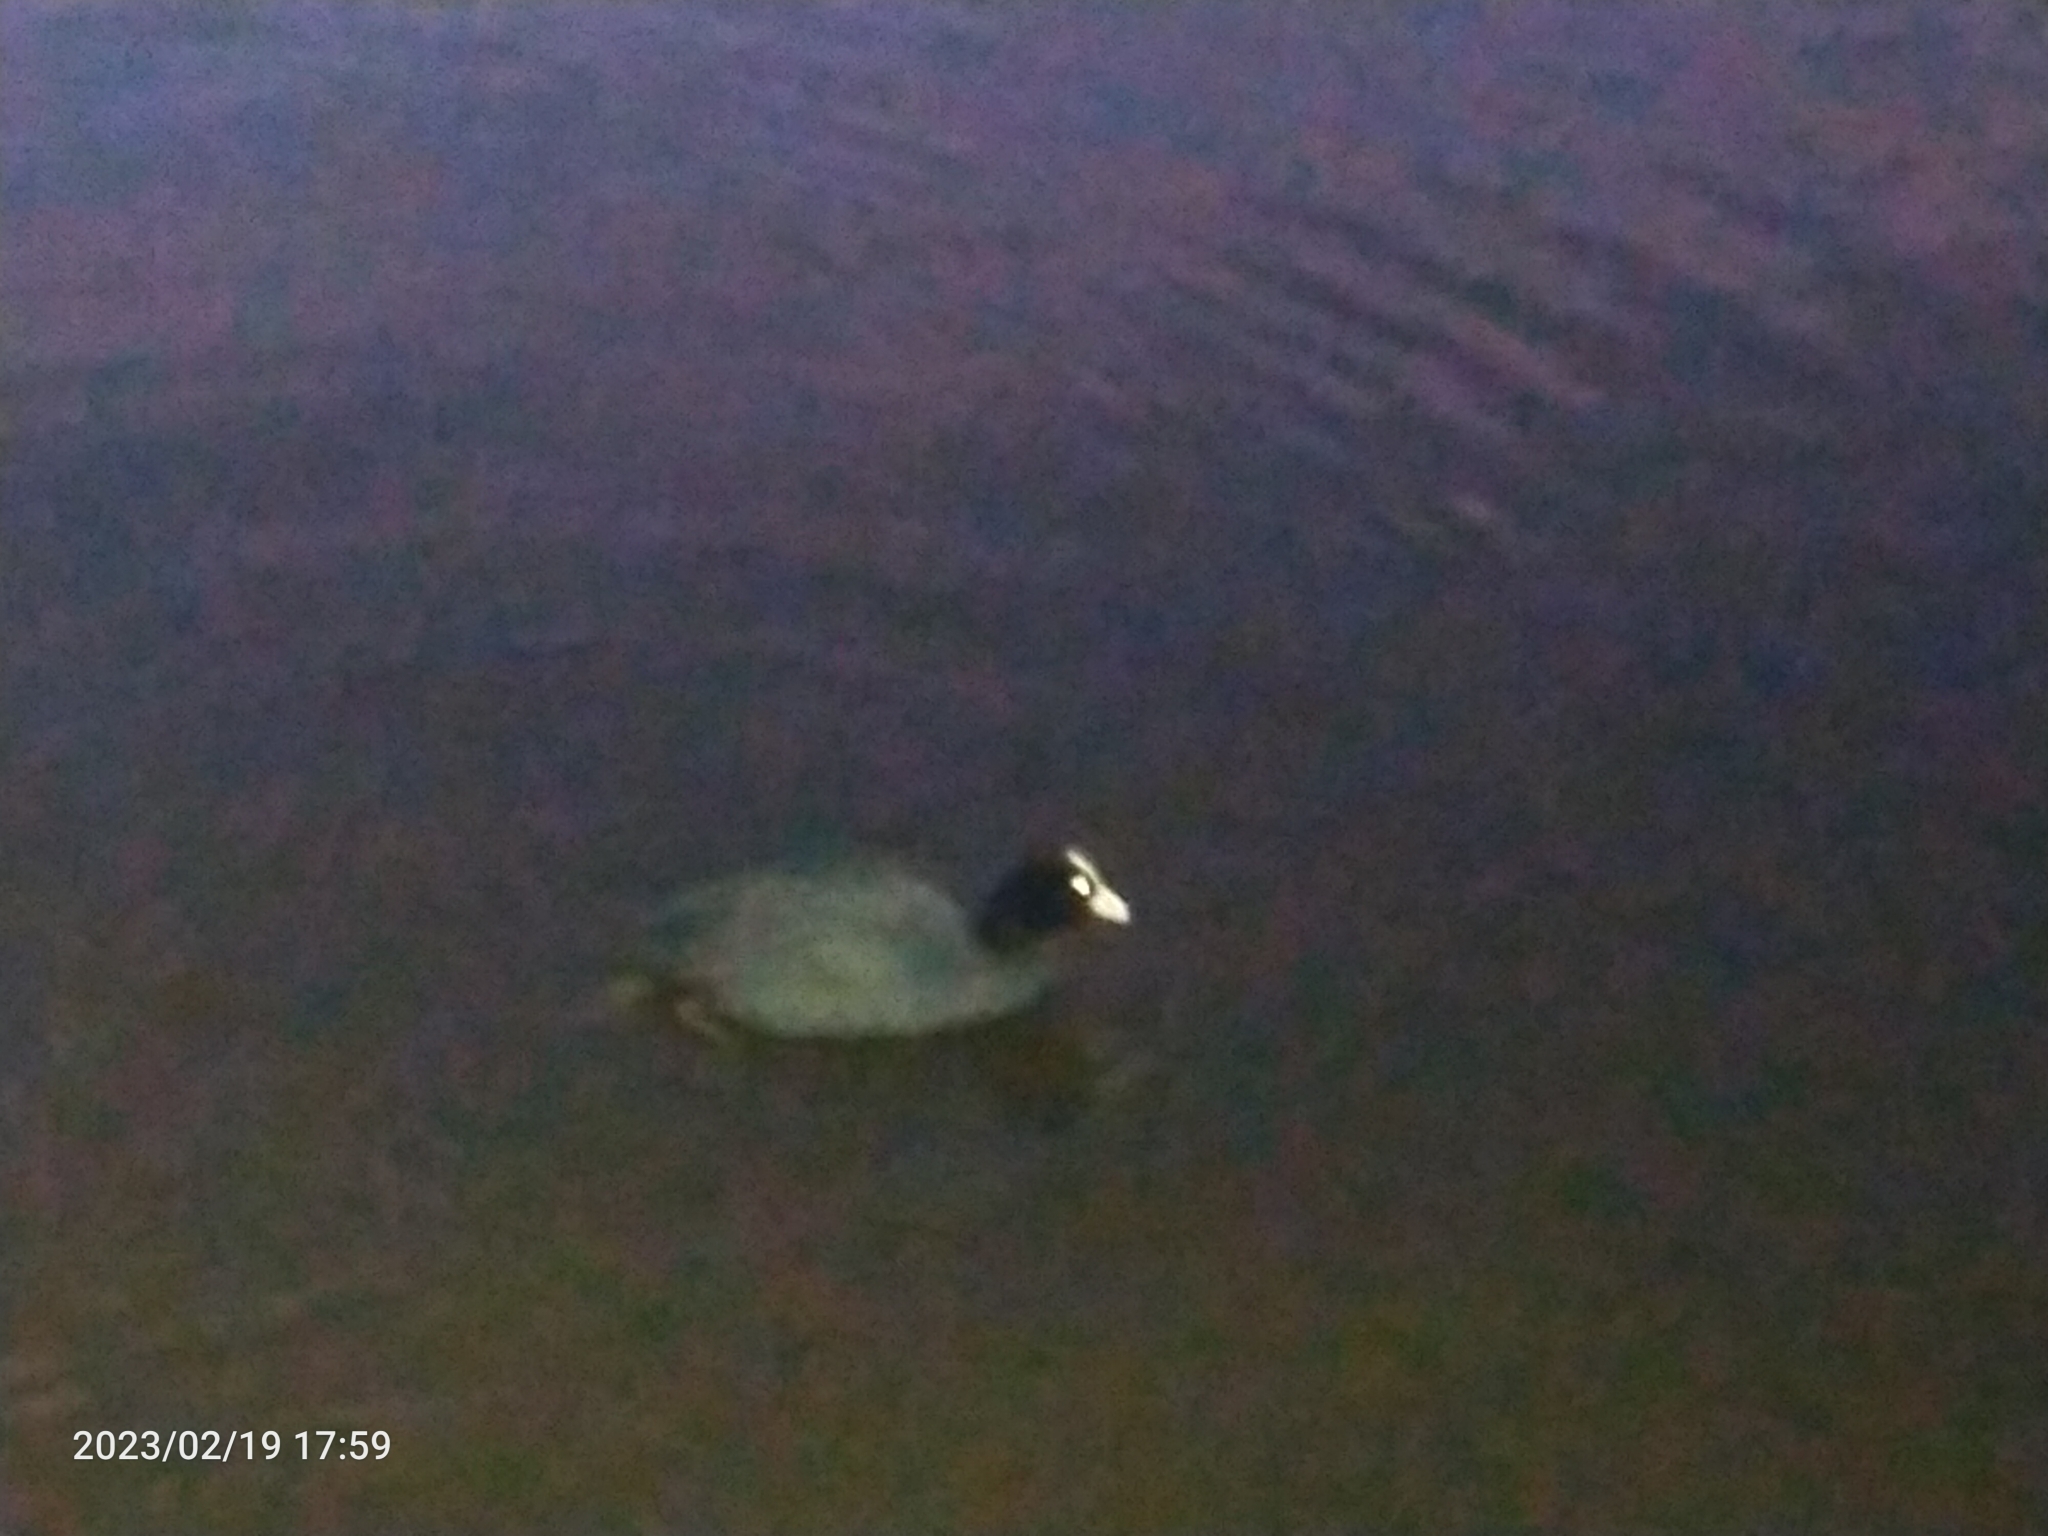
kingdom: Animalia
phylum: Chordata
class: Aves
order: Gruiformes
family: Rallidae
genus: Fulica
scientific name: Fulica atra
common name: Eurasian coot
